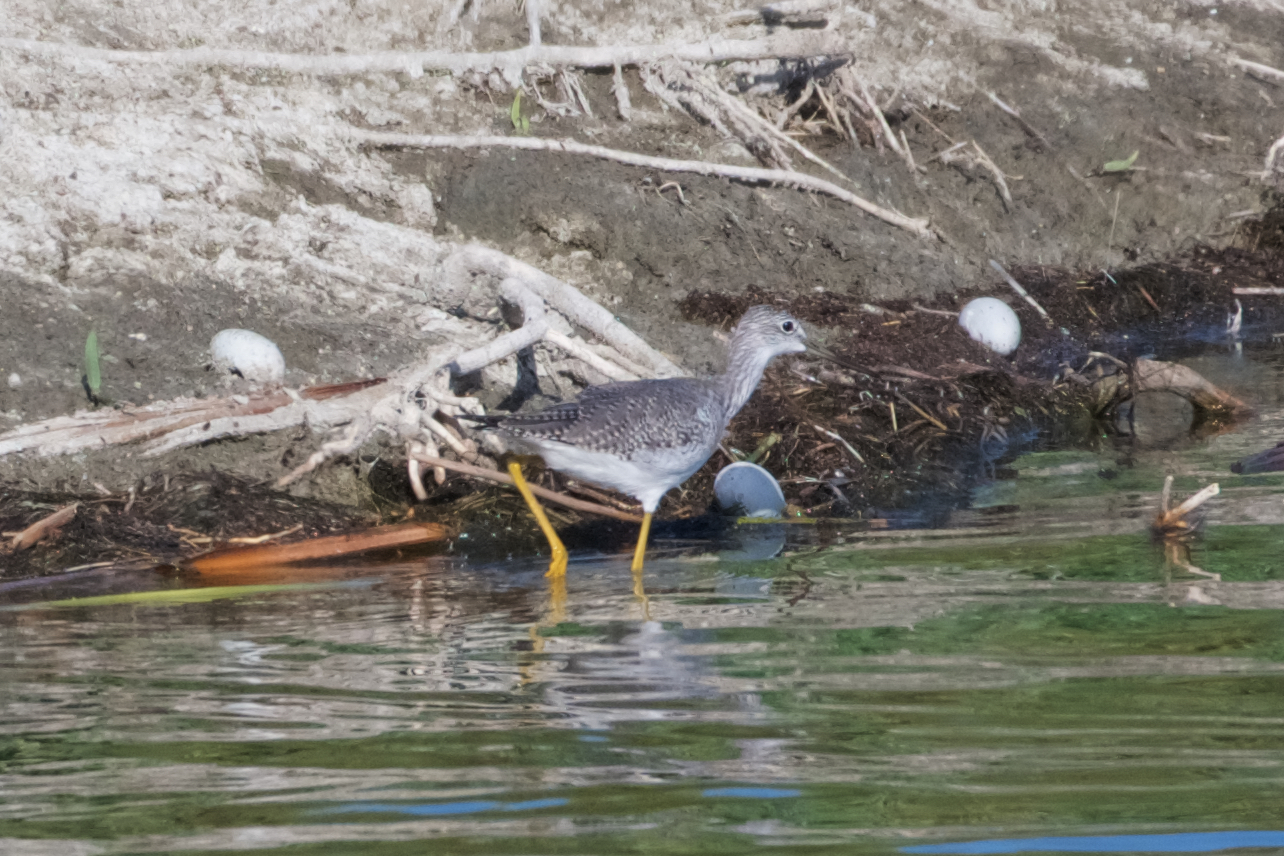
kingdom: Animalia
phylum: Chordata
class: Aves
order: Charadriiformes
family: Scolopacidae
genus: Tringa
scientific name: Tringa melanoleuca
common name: Greater yellowlegs
